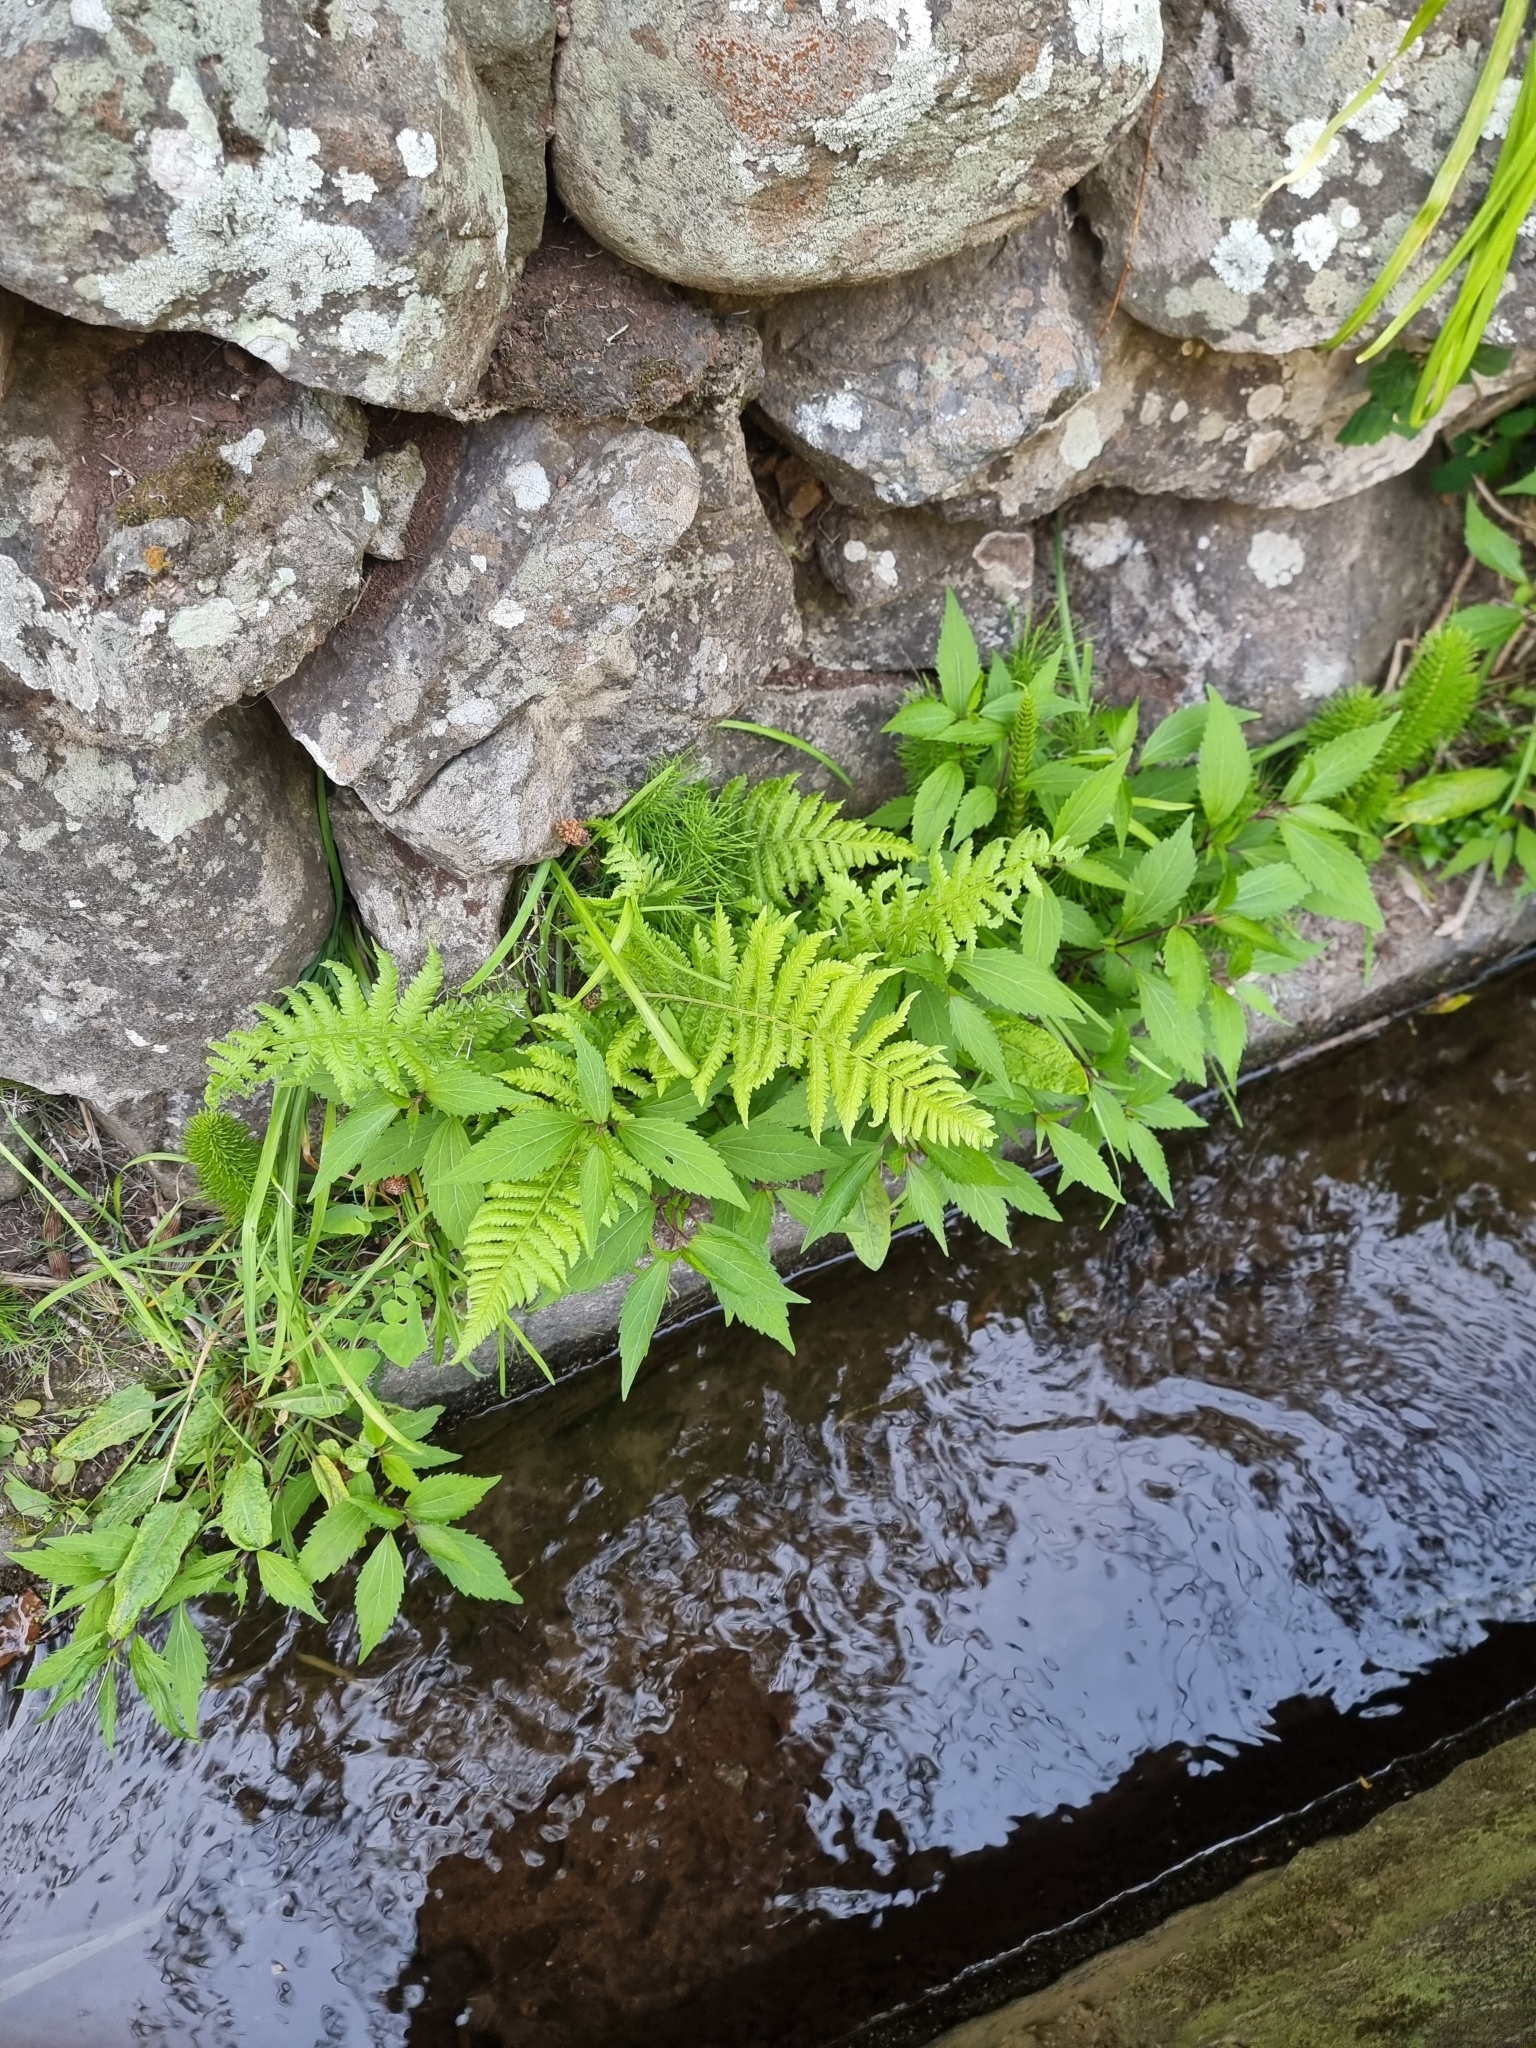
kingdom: Plantae
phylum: Tracheophyta
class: Polypodiopsida
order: Polypodiales
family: Thelypteridaceae
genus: Christella
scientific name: Christella dentata
